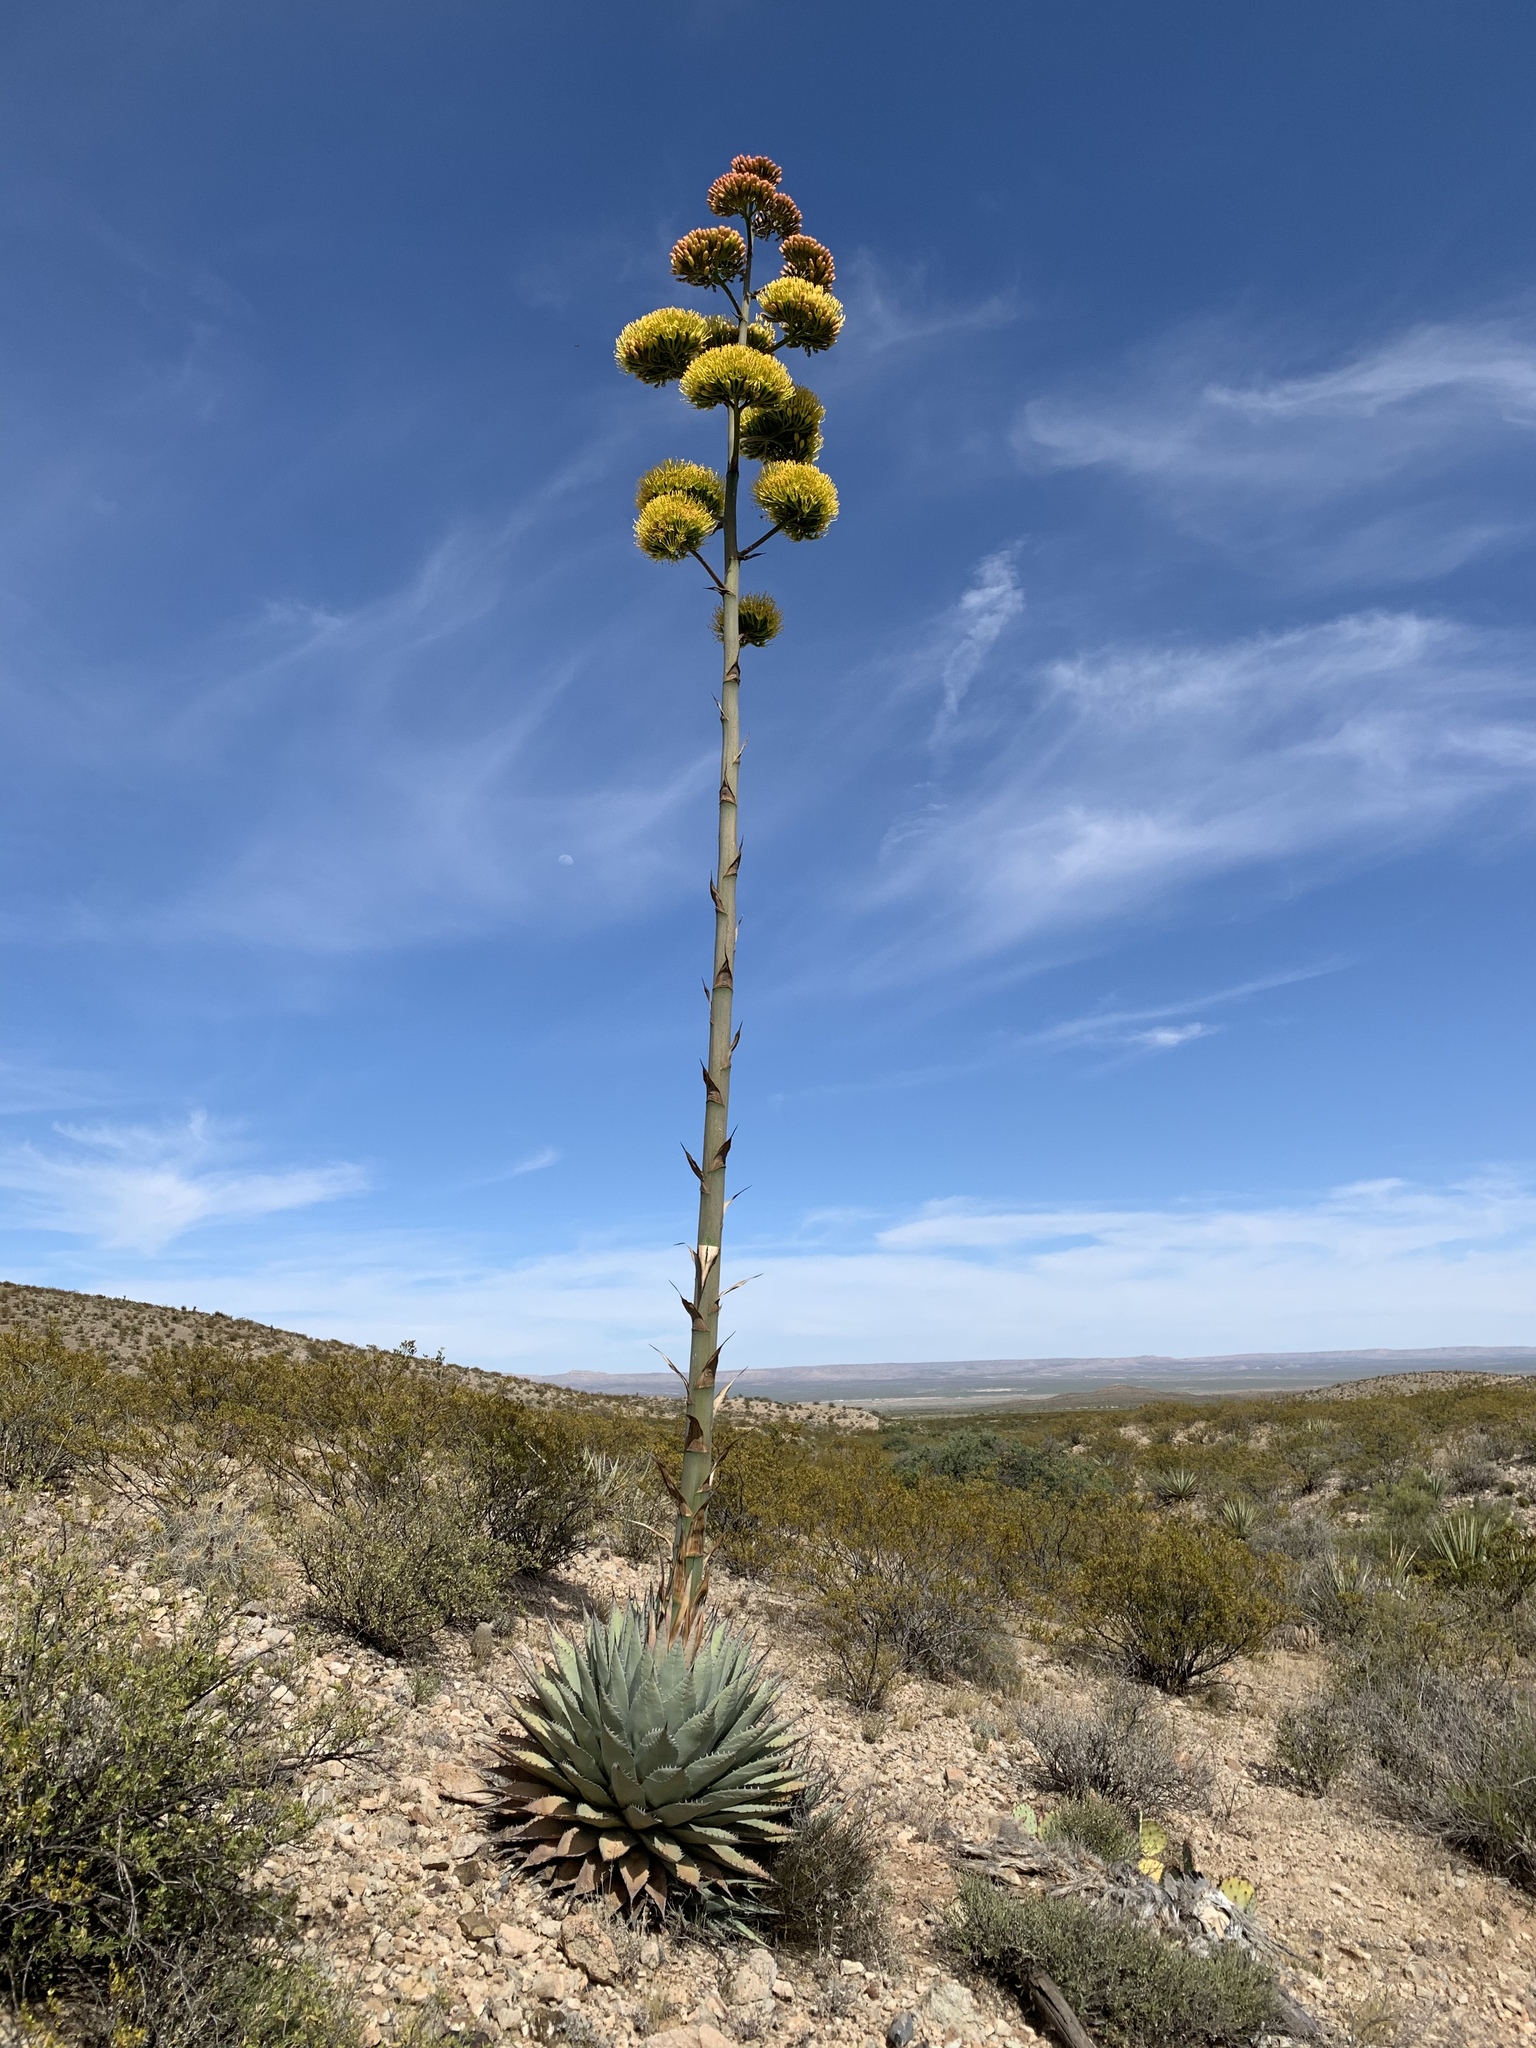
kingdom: Plantae
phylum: Tracheophyta
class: Liliopsida
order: Asparagales
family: Asparagaceae
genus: Agave
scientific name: Agave parryi
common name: Parry's agave
